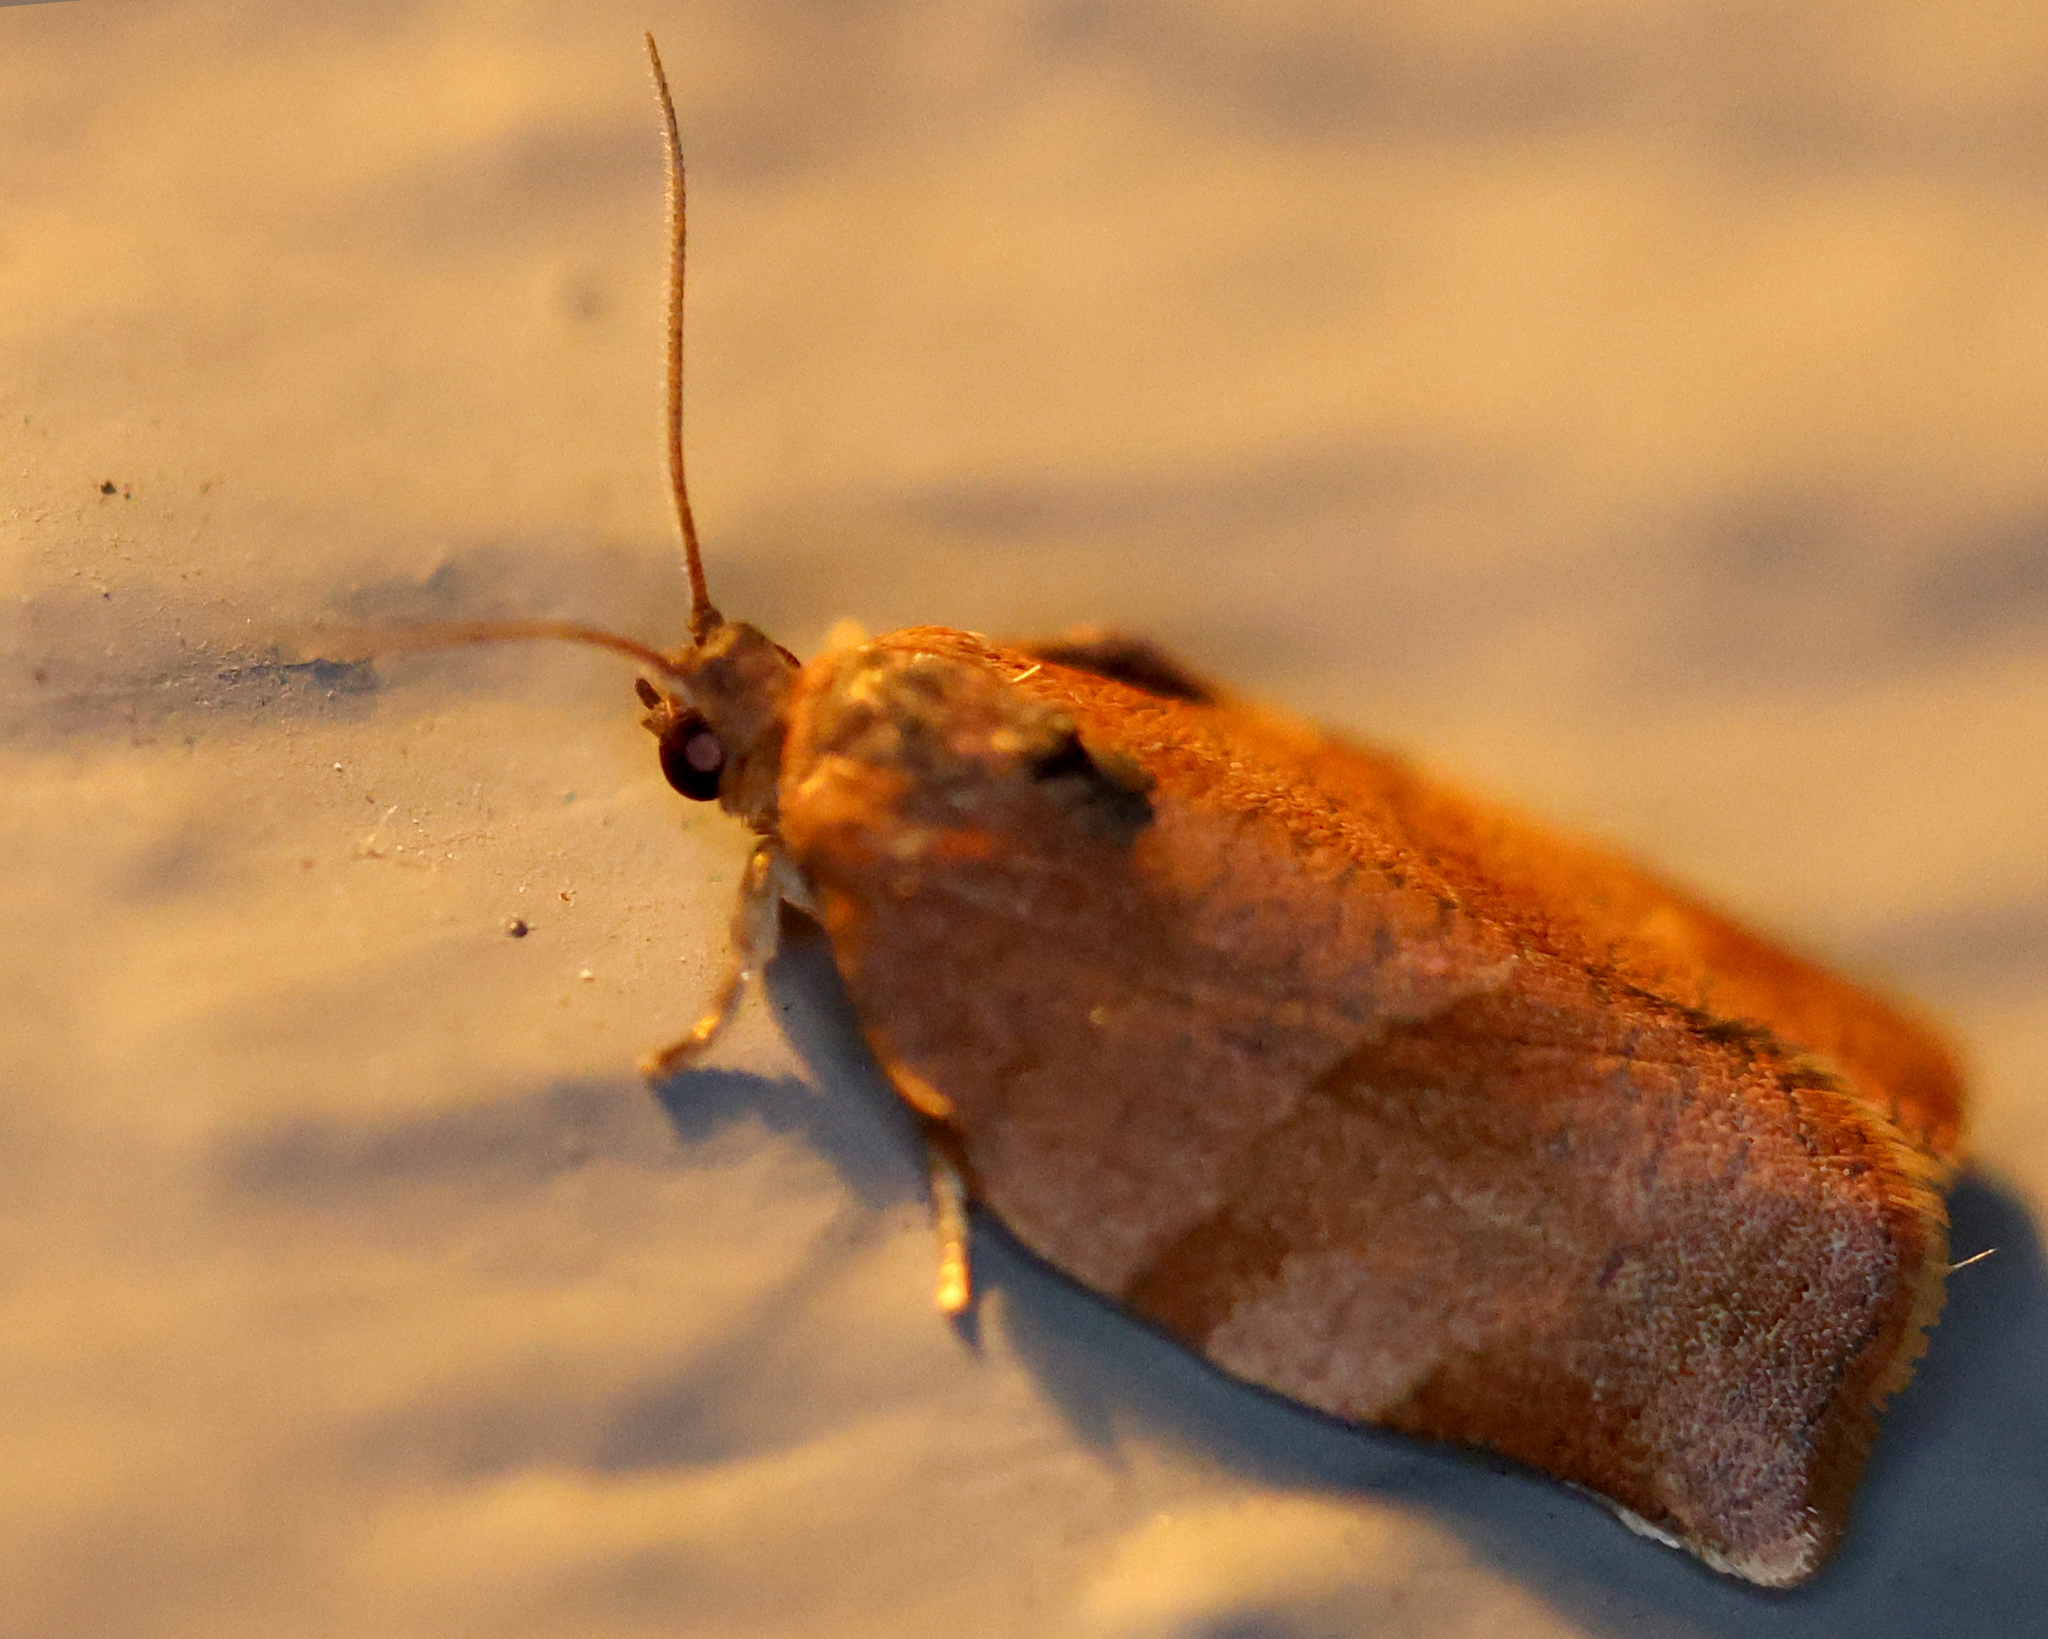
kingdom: Animalia
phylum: Arthropoda
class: Insecta
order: Lepidoptera
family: Tortricidae
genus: Choristoneura
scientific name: Choristoneura rosaceana
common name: Oblique-banded leafroller moth
